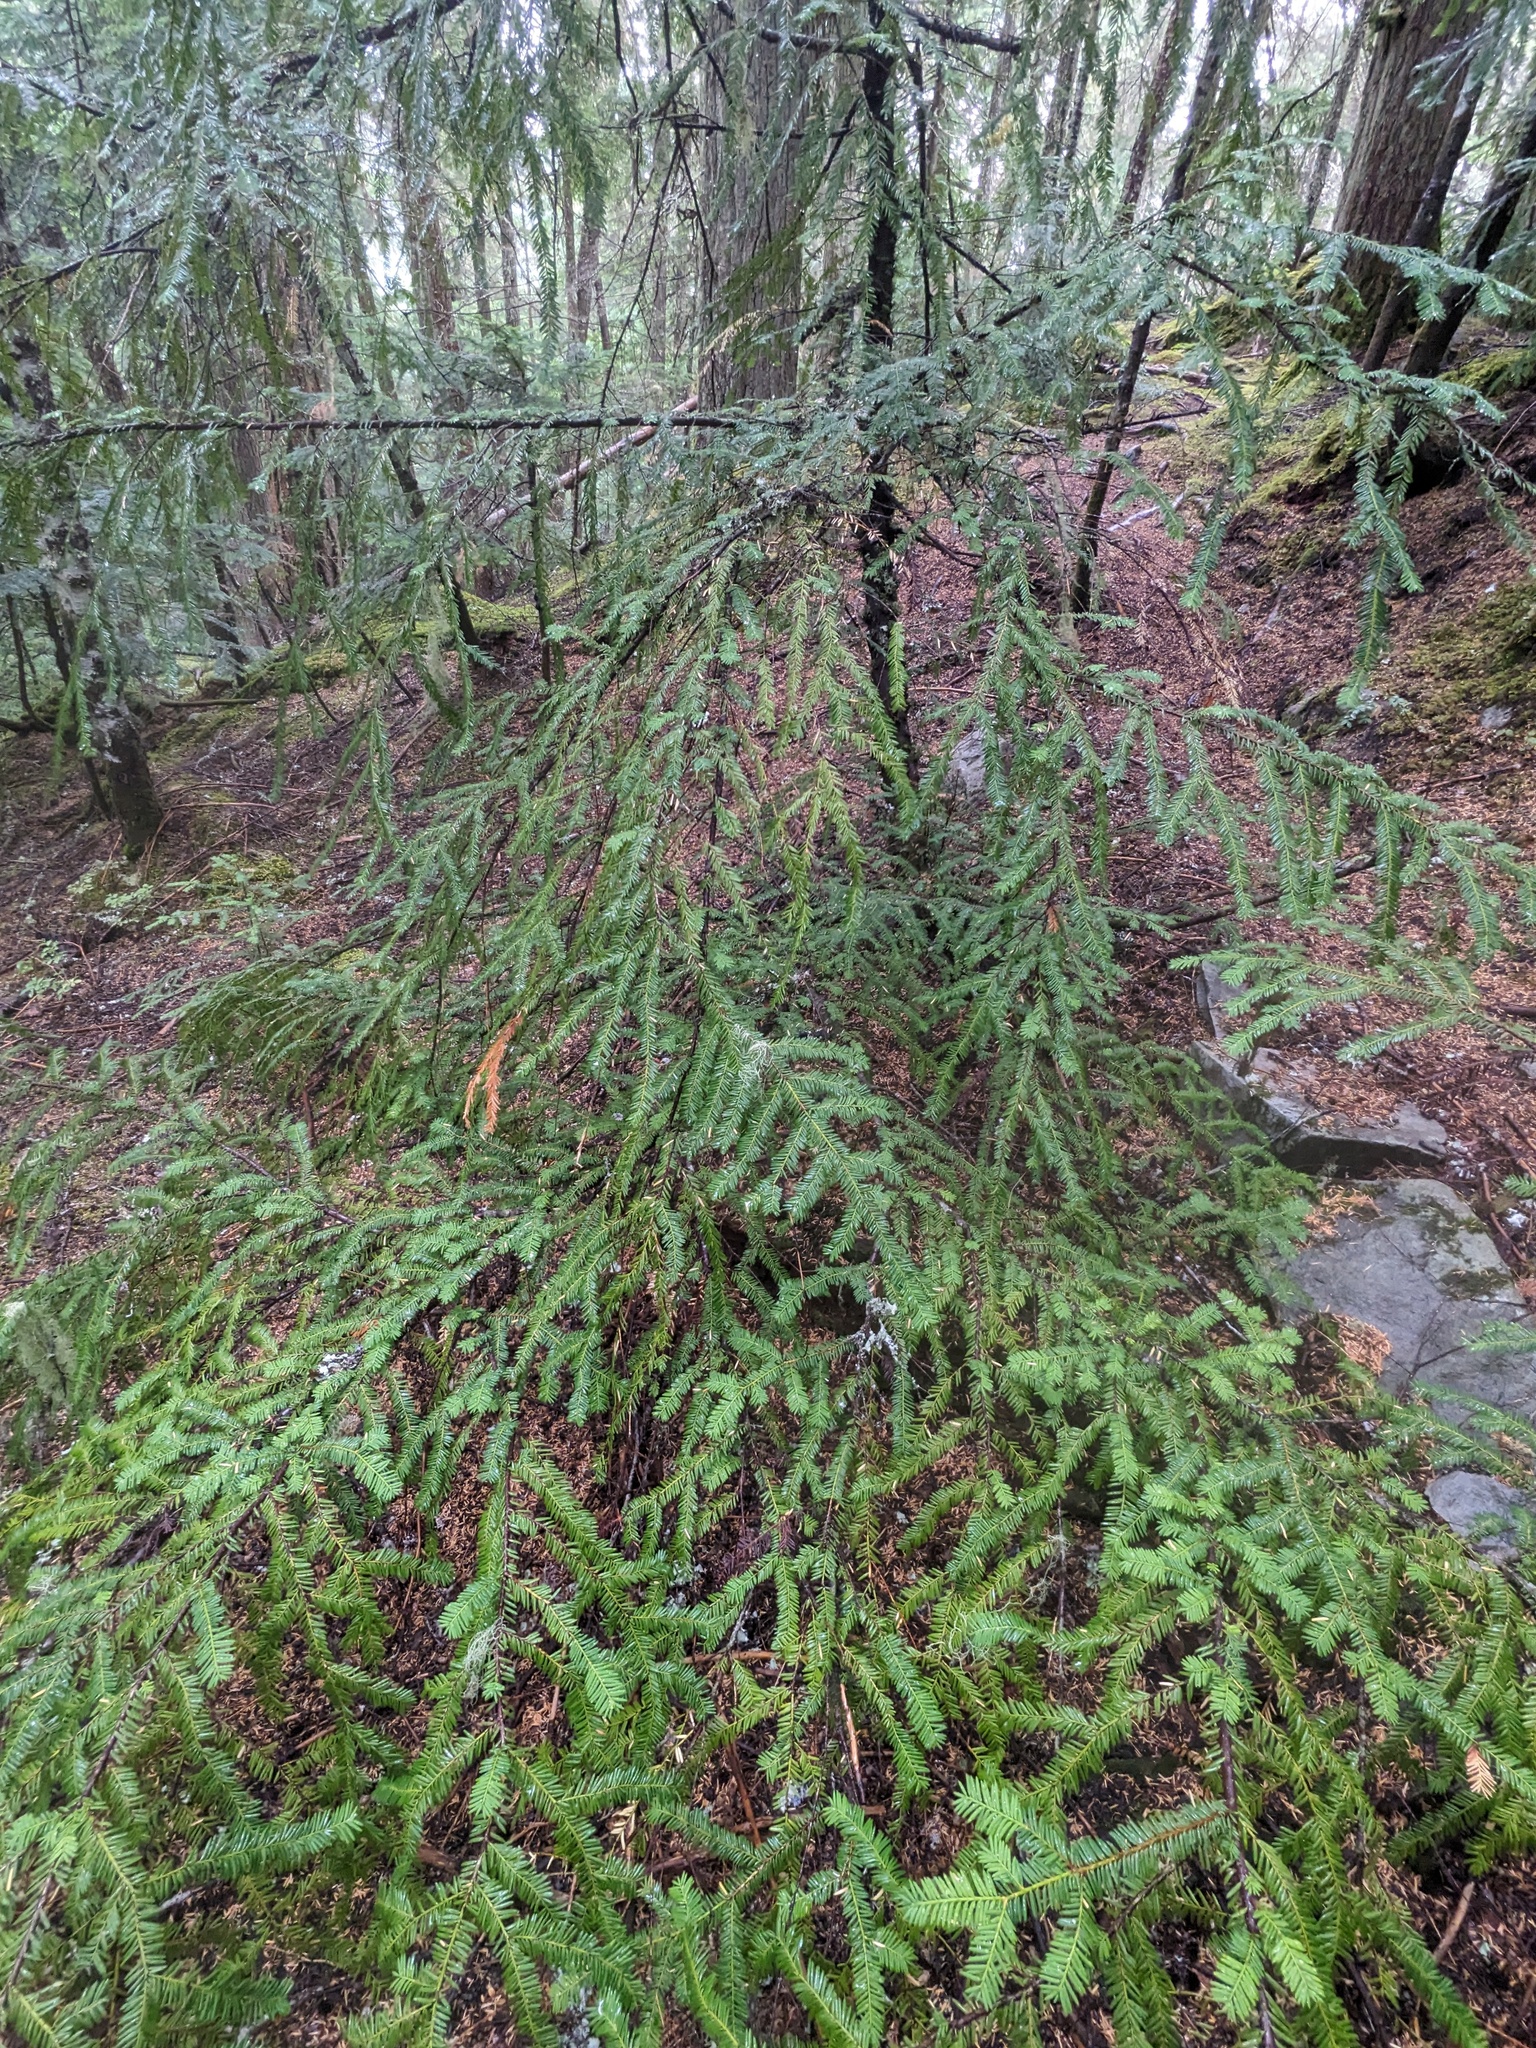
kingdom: Plantae
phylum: Tracheophyta
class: Pinopsida
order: Pinales
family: Taxaceae
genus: Taxus
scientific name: Taxus brevifolia
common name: Pacific yew
